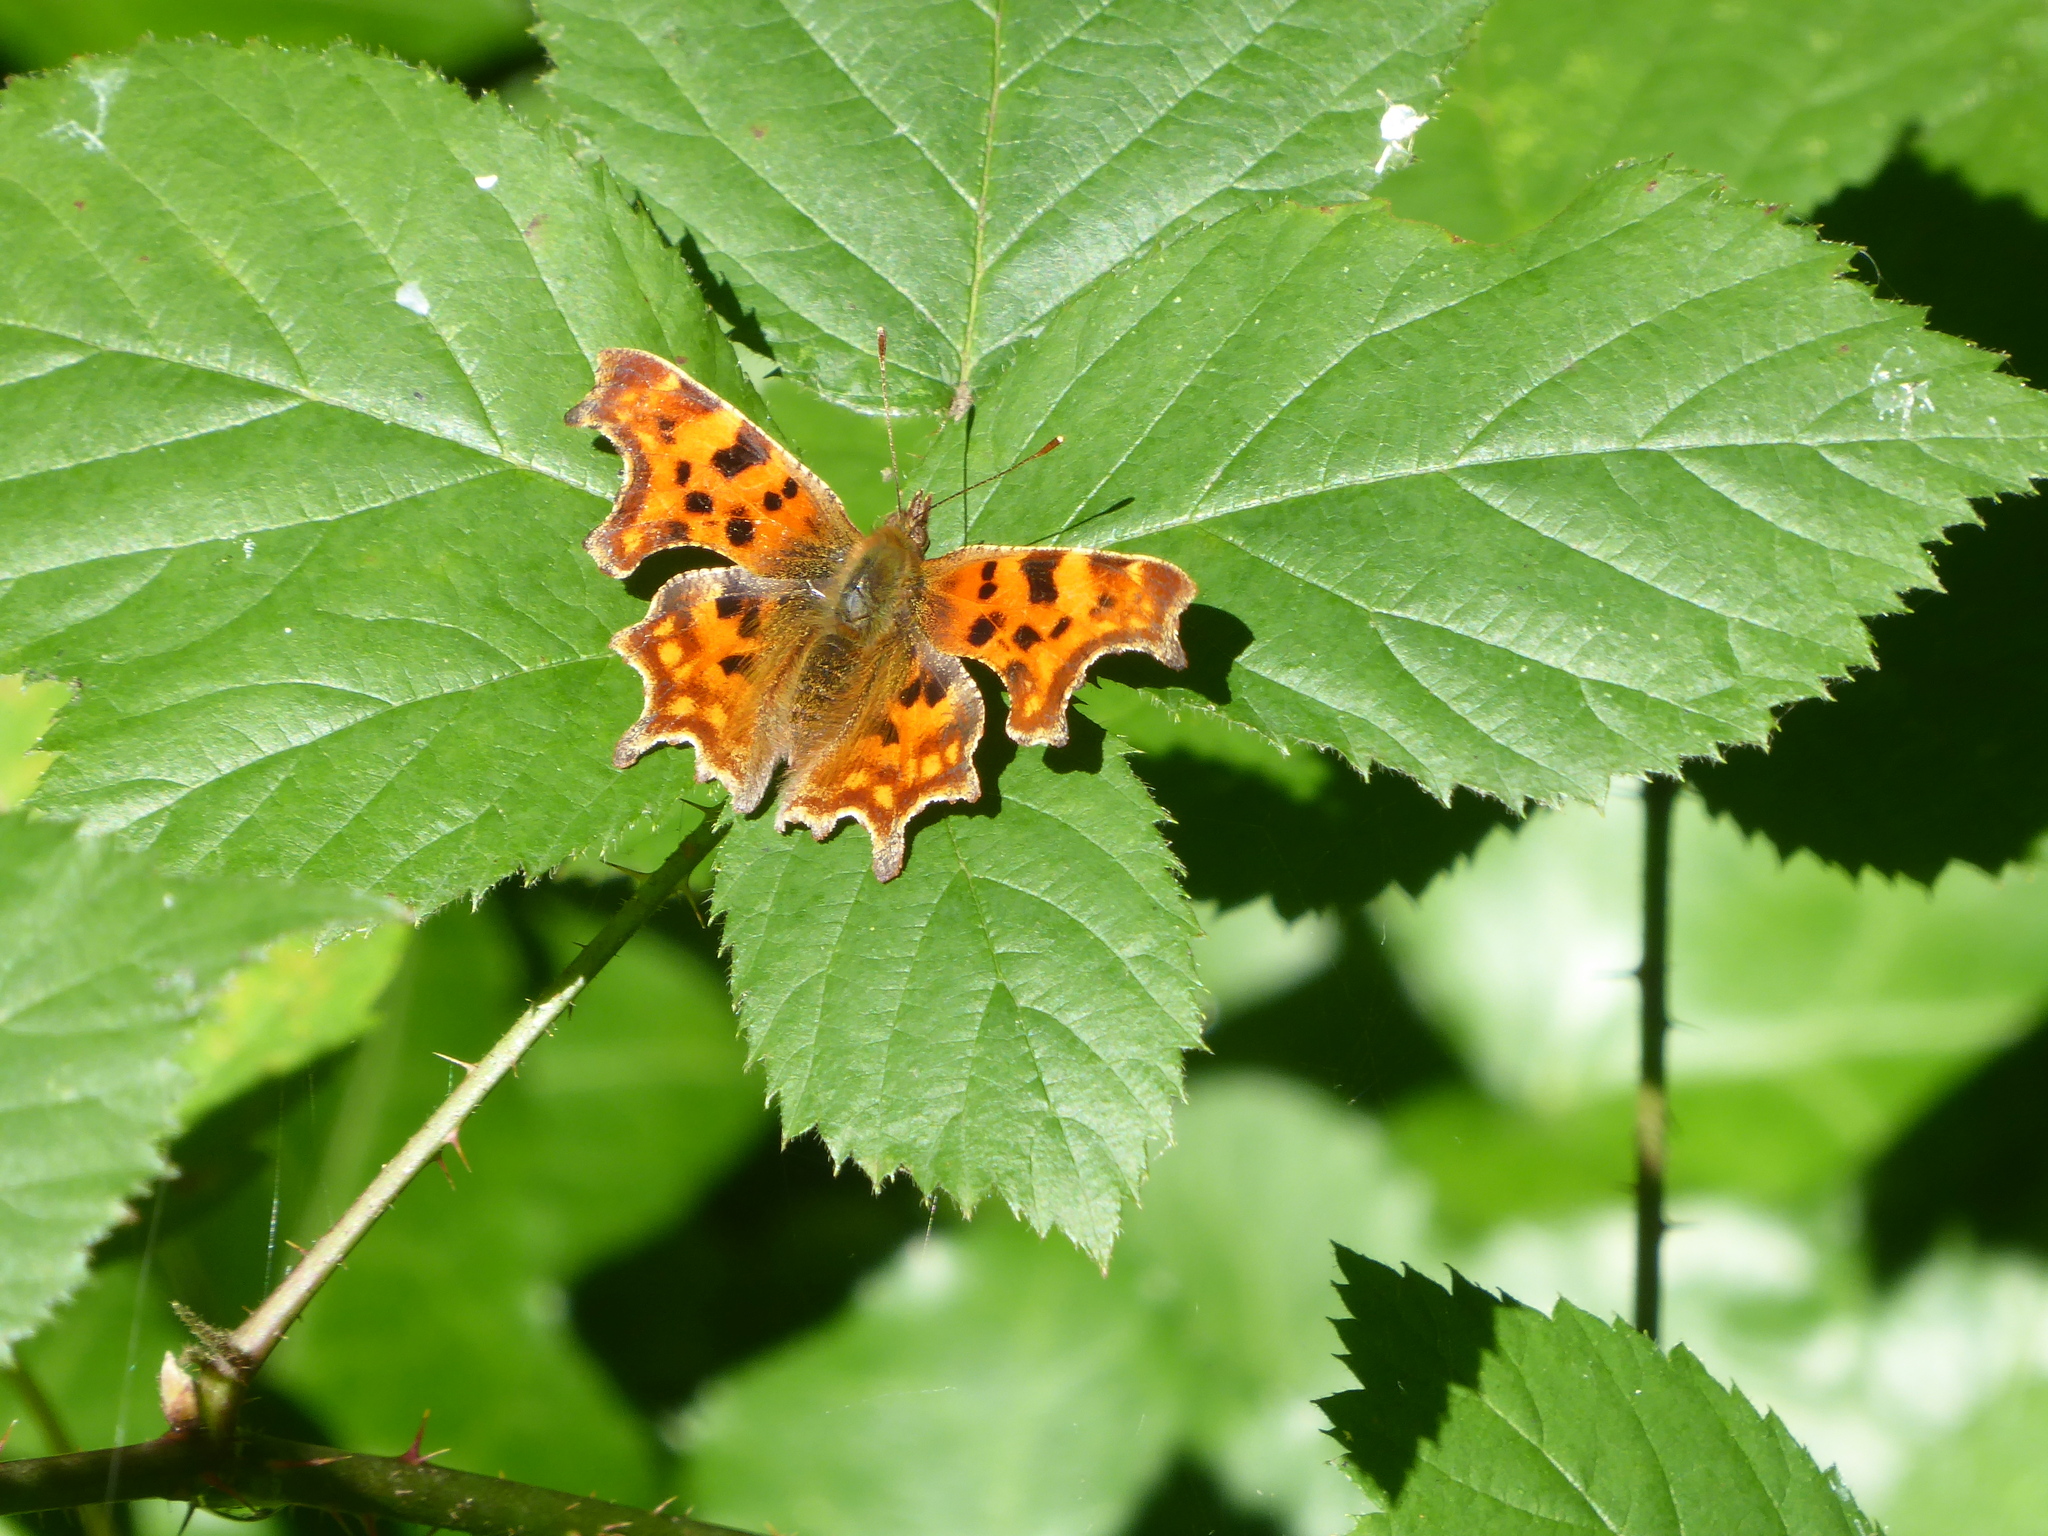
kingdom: Animalia
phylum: Arthropoda
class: Insecta
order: Lepidoptera
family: Nymphalidae
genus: Polygonia
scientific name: Polygonia c-album
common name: Comma
